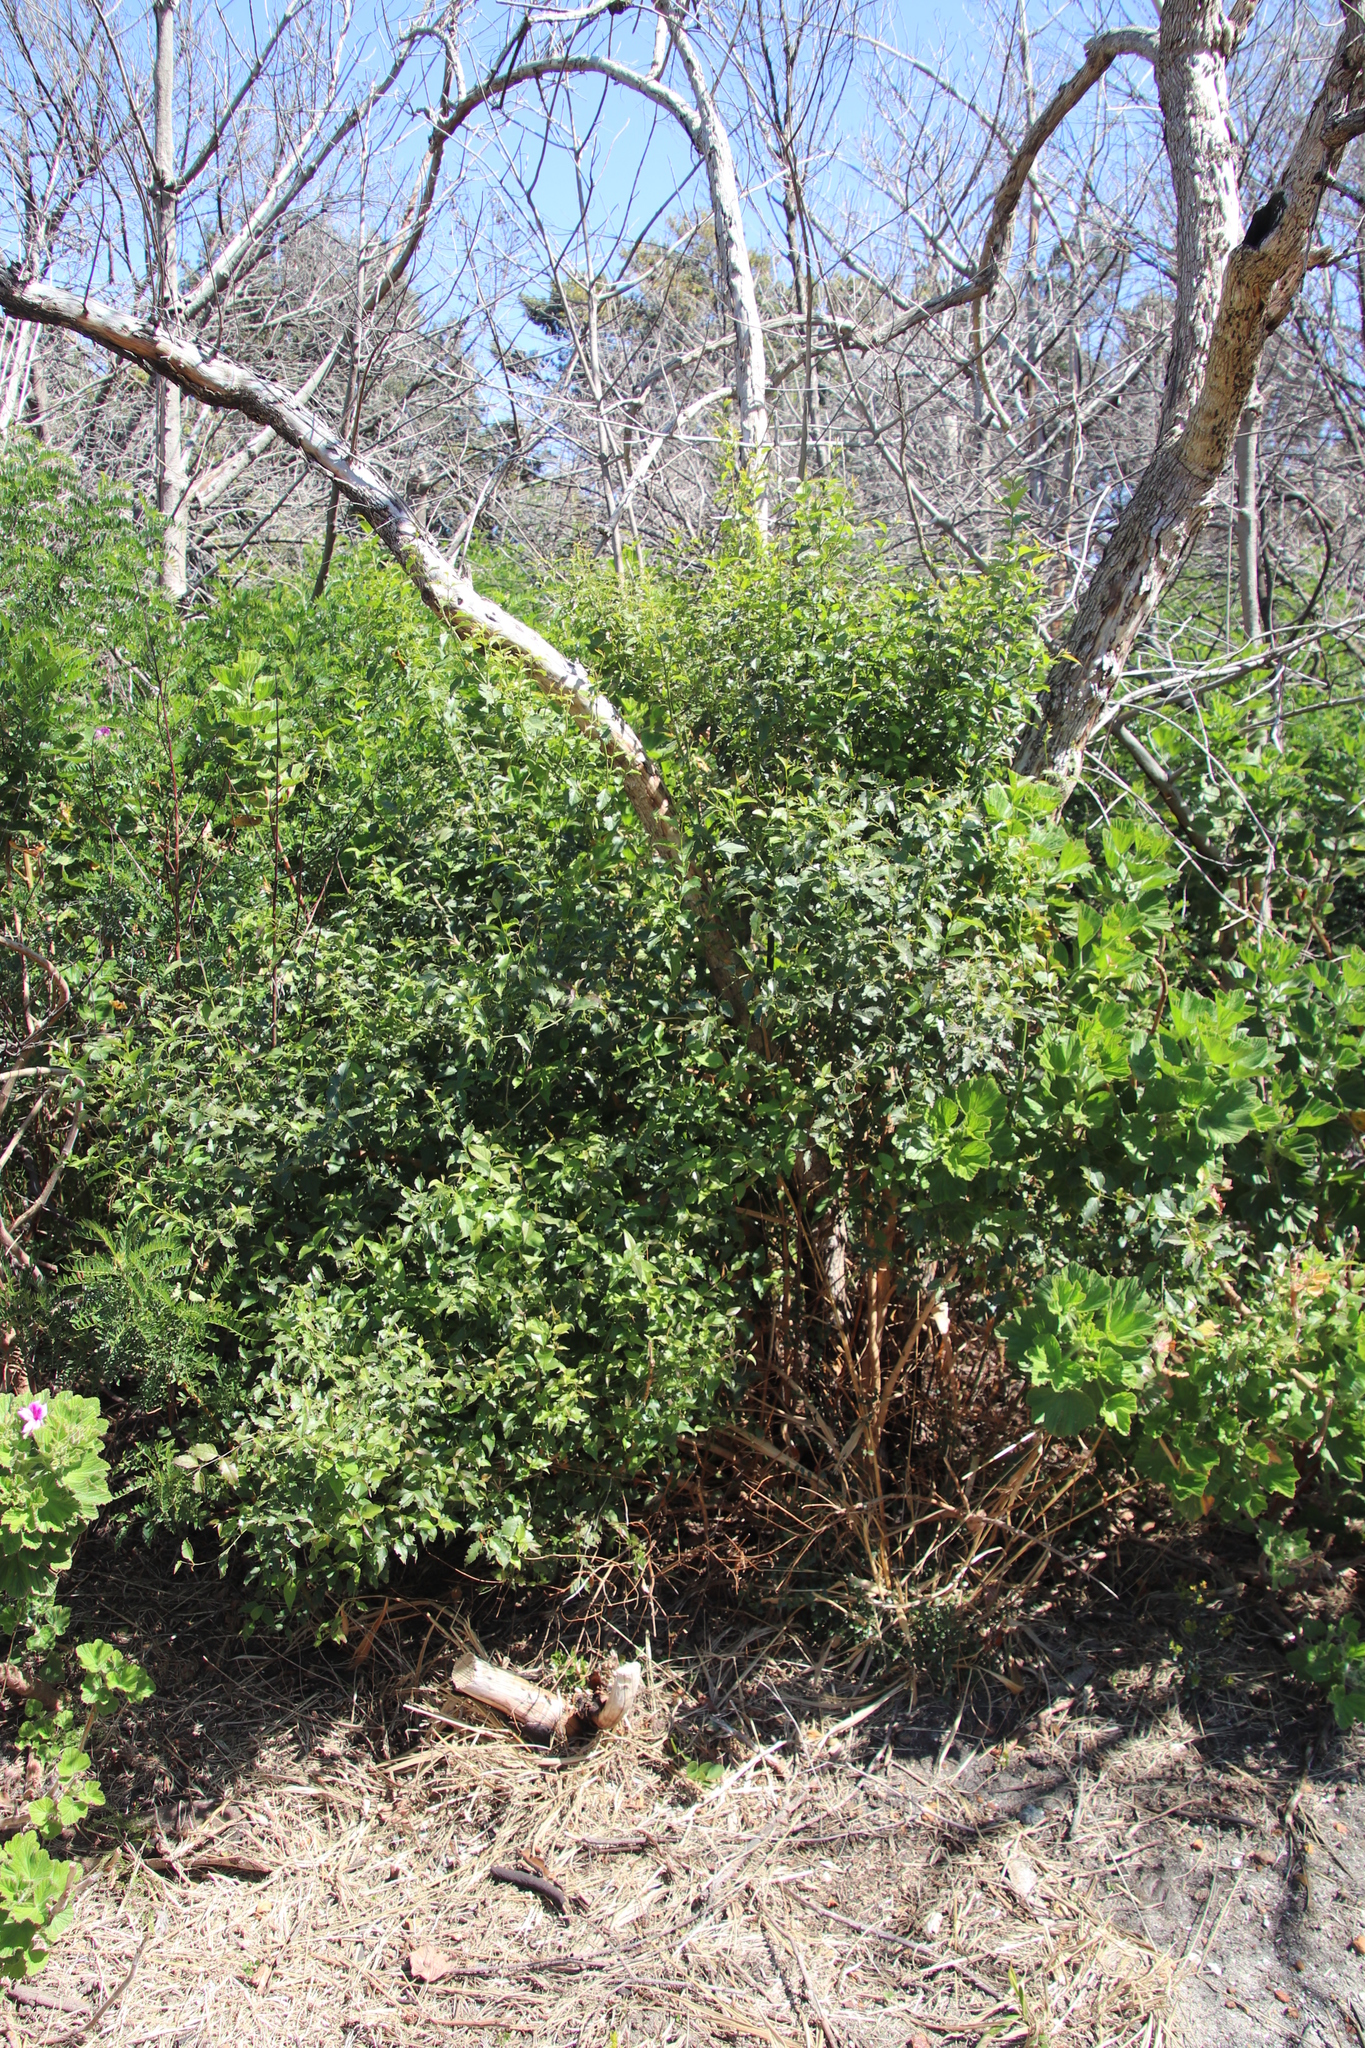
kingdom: Plantae
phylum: Tracheophyta
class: Magnoliopsida
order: Lamiales
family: Stilbaceae
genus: Halleria
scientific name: Halleria lucida
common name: Tree fuschia
